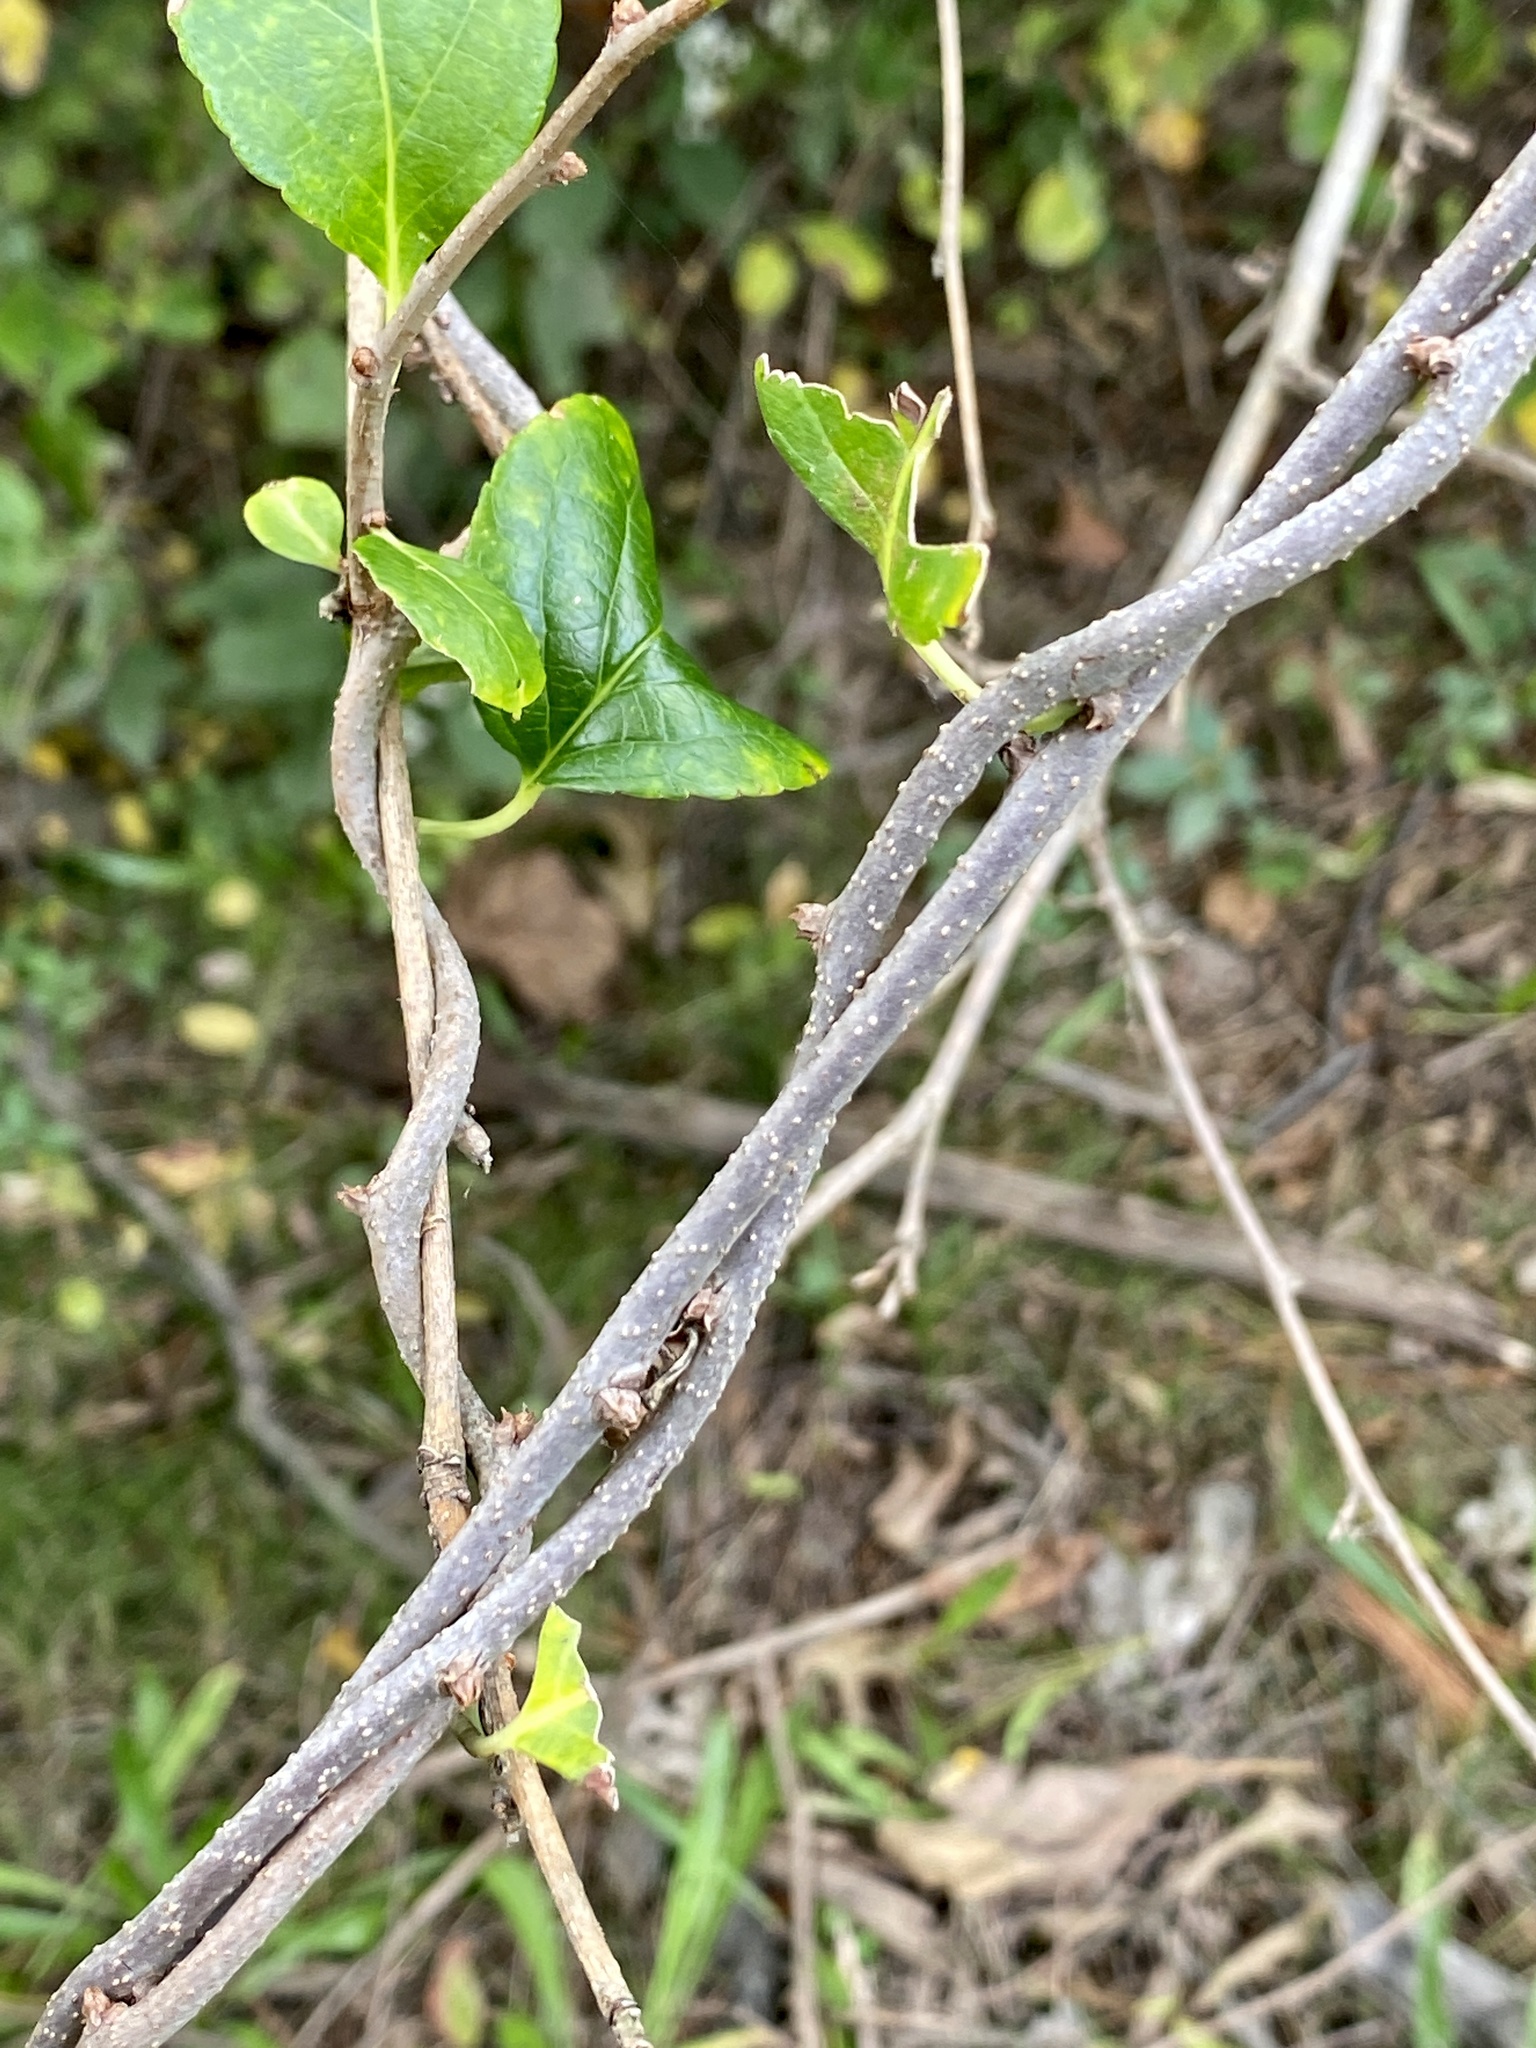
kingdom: Plantae
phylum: Tracheophyta
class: Magnoliopsida
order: Celastrales
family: Celastraceae
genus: Celastrus
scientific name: Celastrus orbiculatus
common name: Oriental bittersweet
